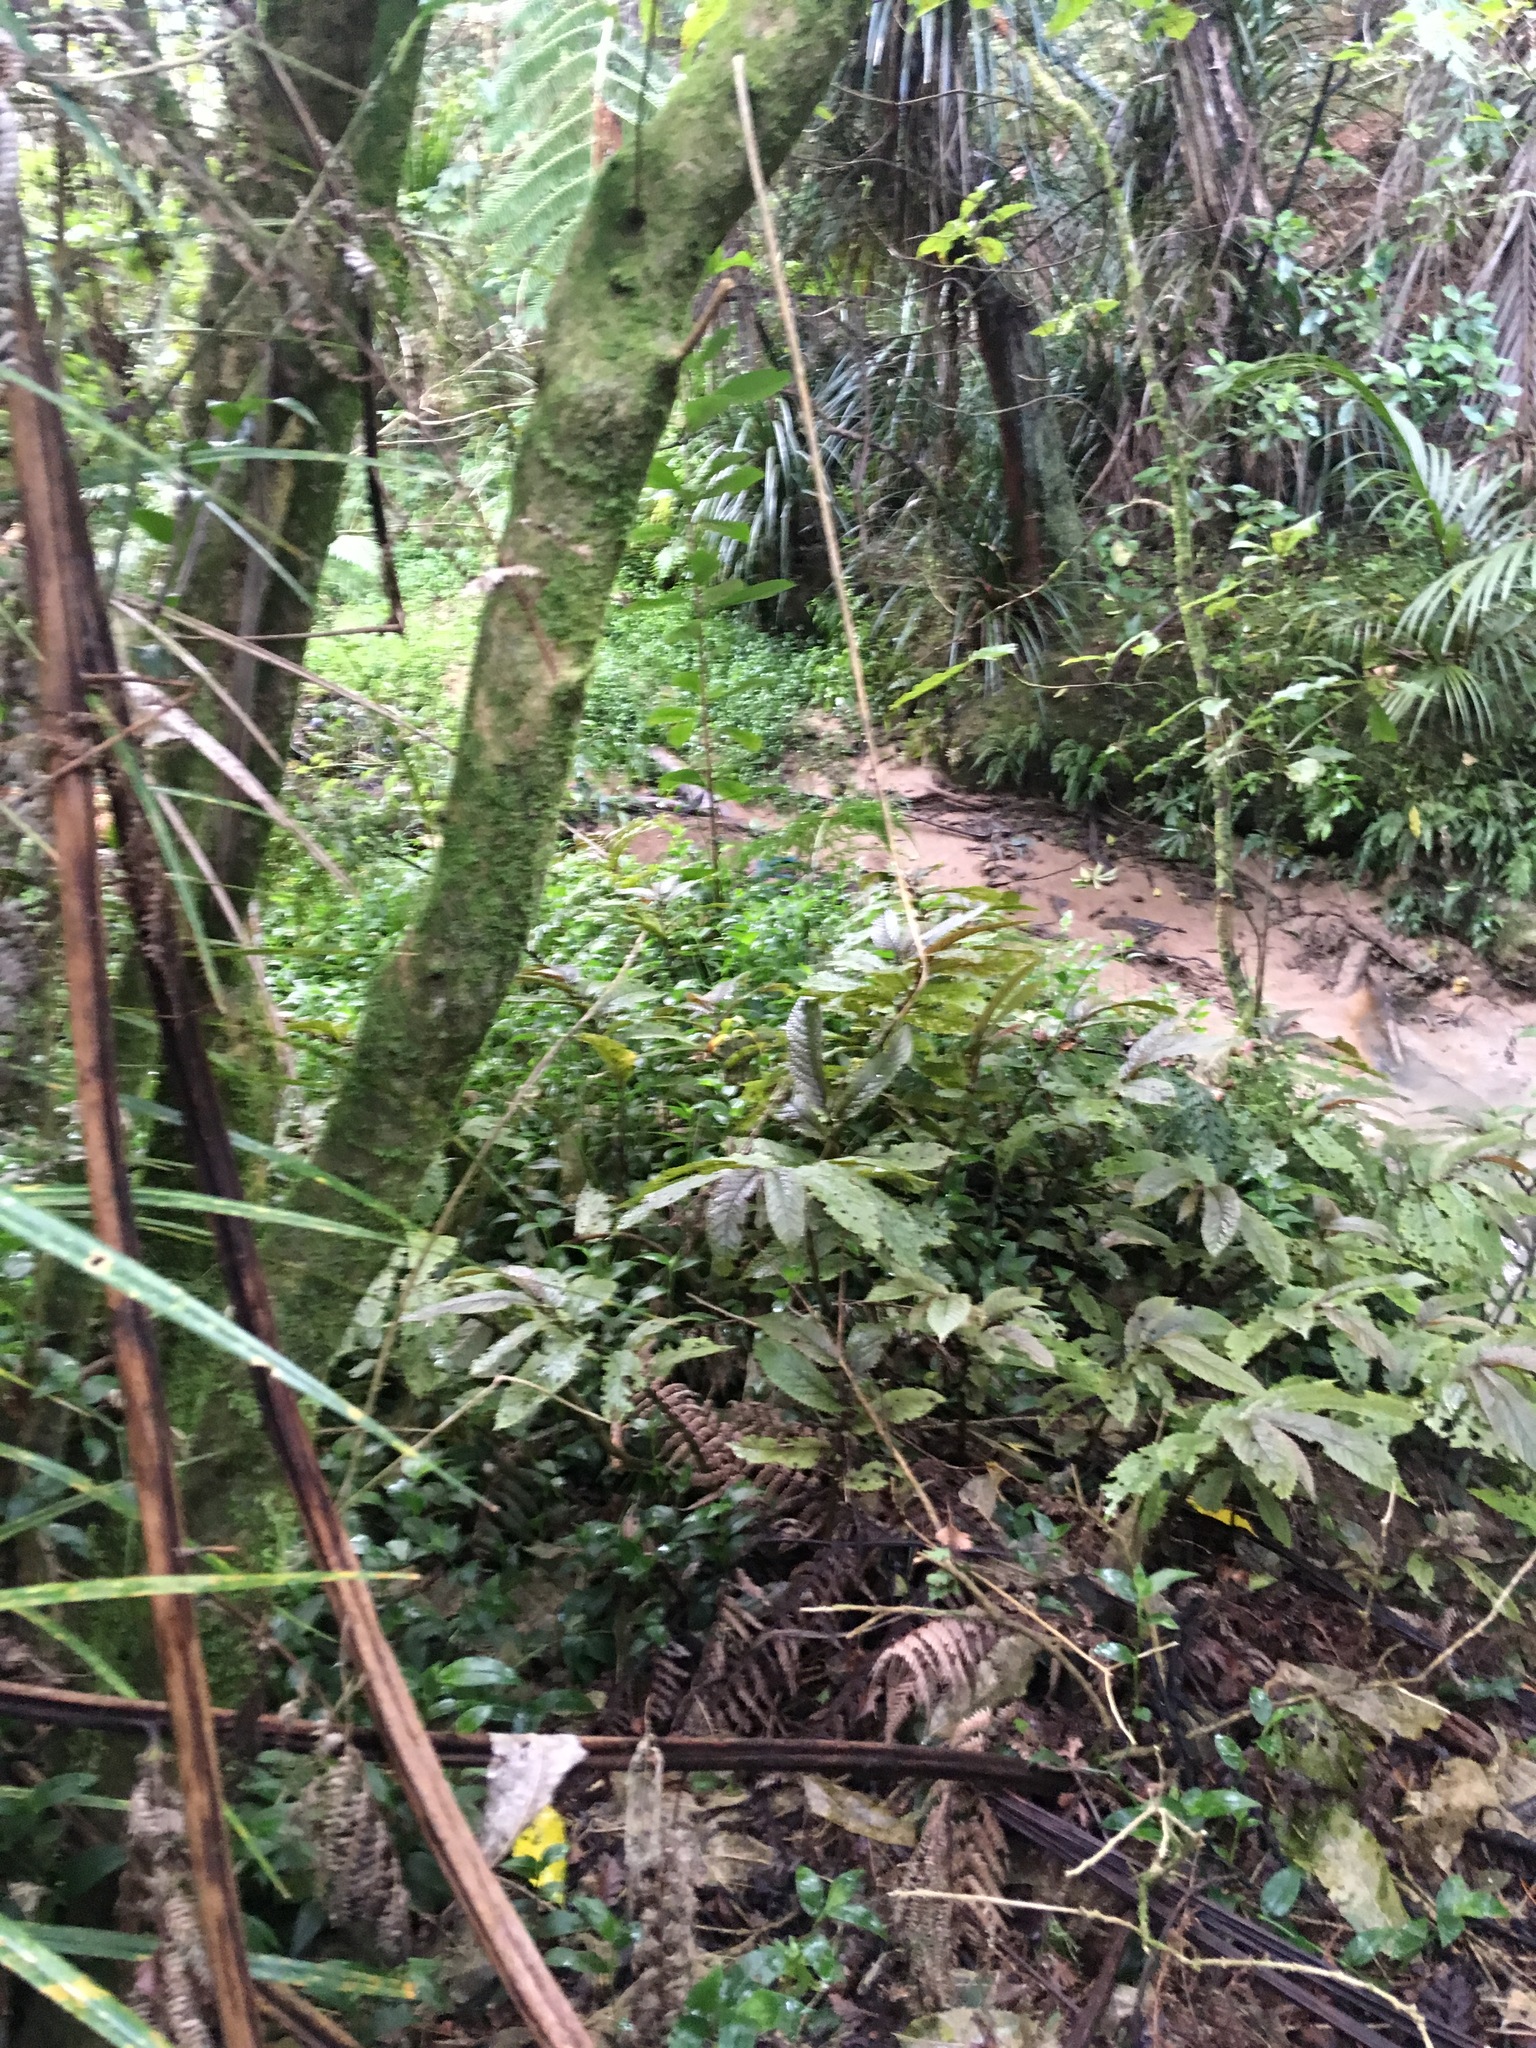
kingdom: Plantae
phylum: Tracheophyta
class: Magnoliopsida
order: Rosales
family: Urticaceae
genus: Elatostema
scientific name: Elatostema rugosum
